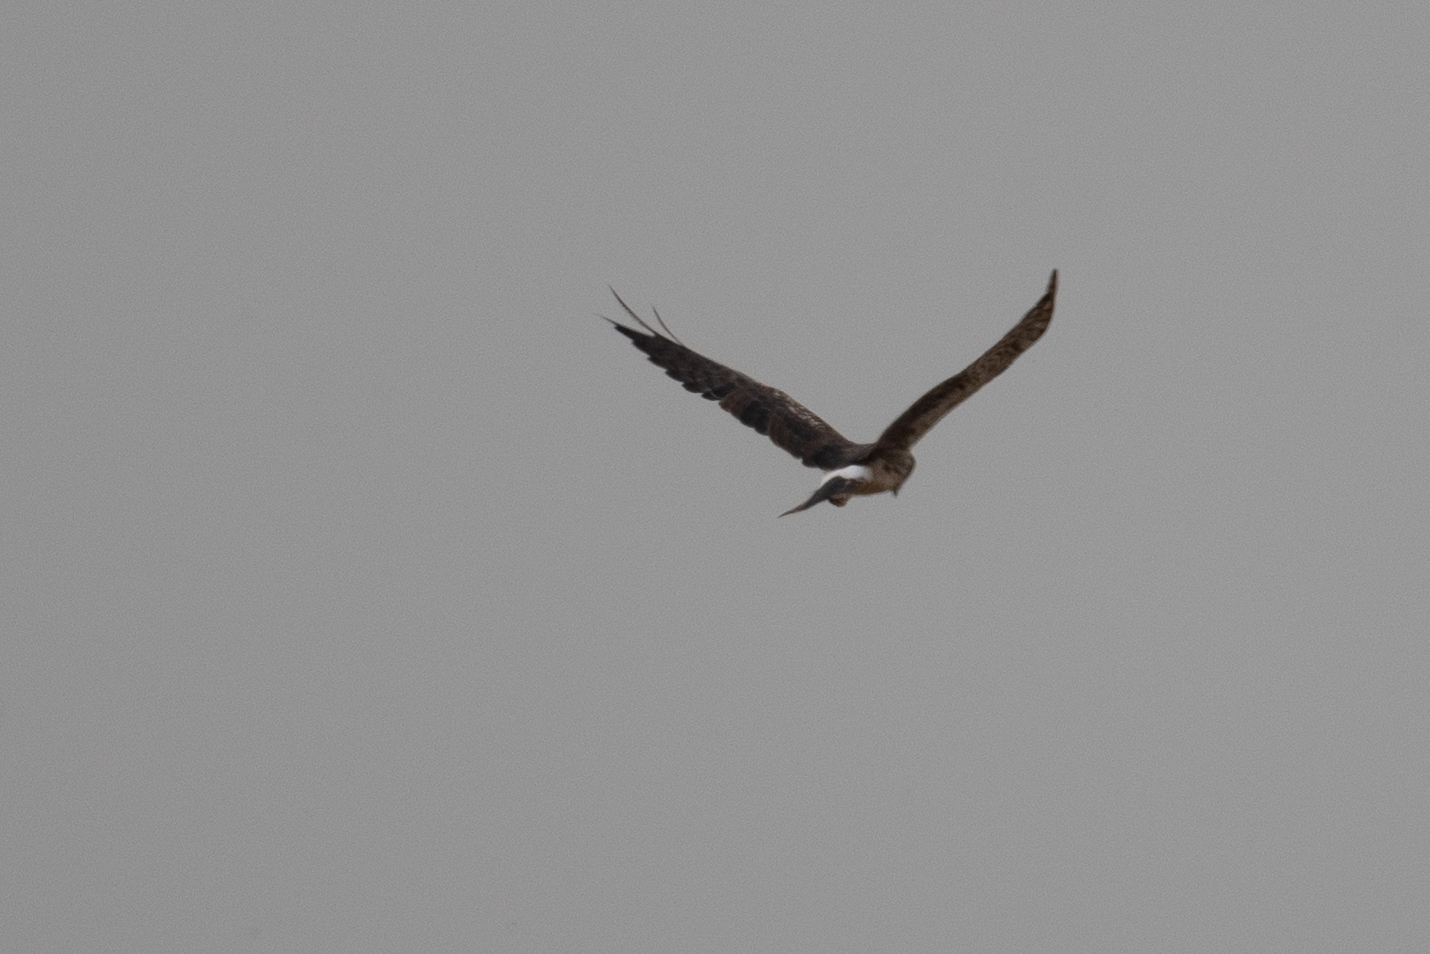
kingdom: Animalia
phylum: Chordata
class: Aves
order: Accipitriformes
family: Accipitridae
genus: Circus
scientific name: Circus cyaneus
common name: Hen harrier
